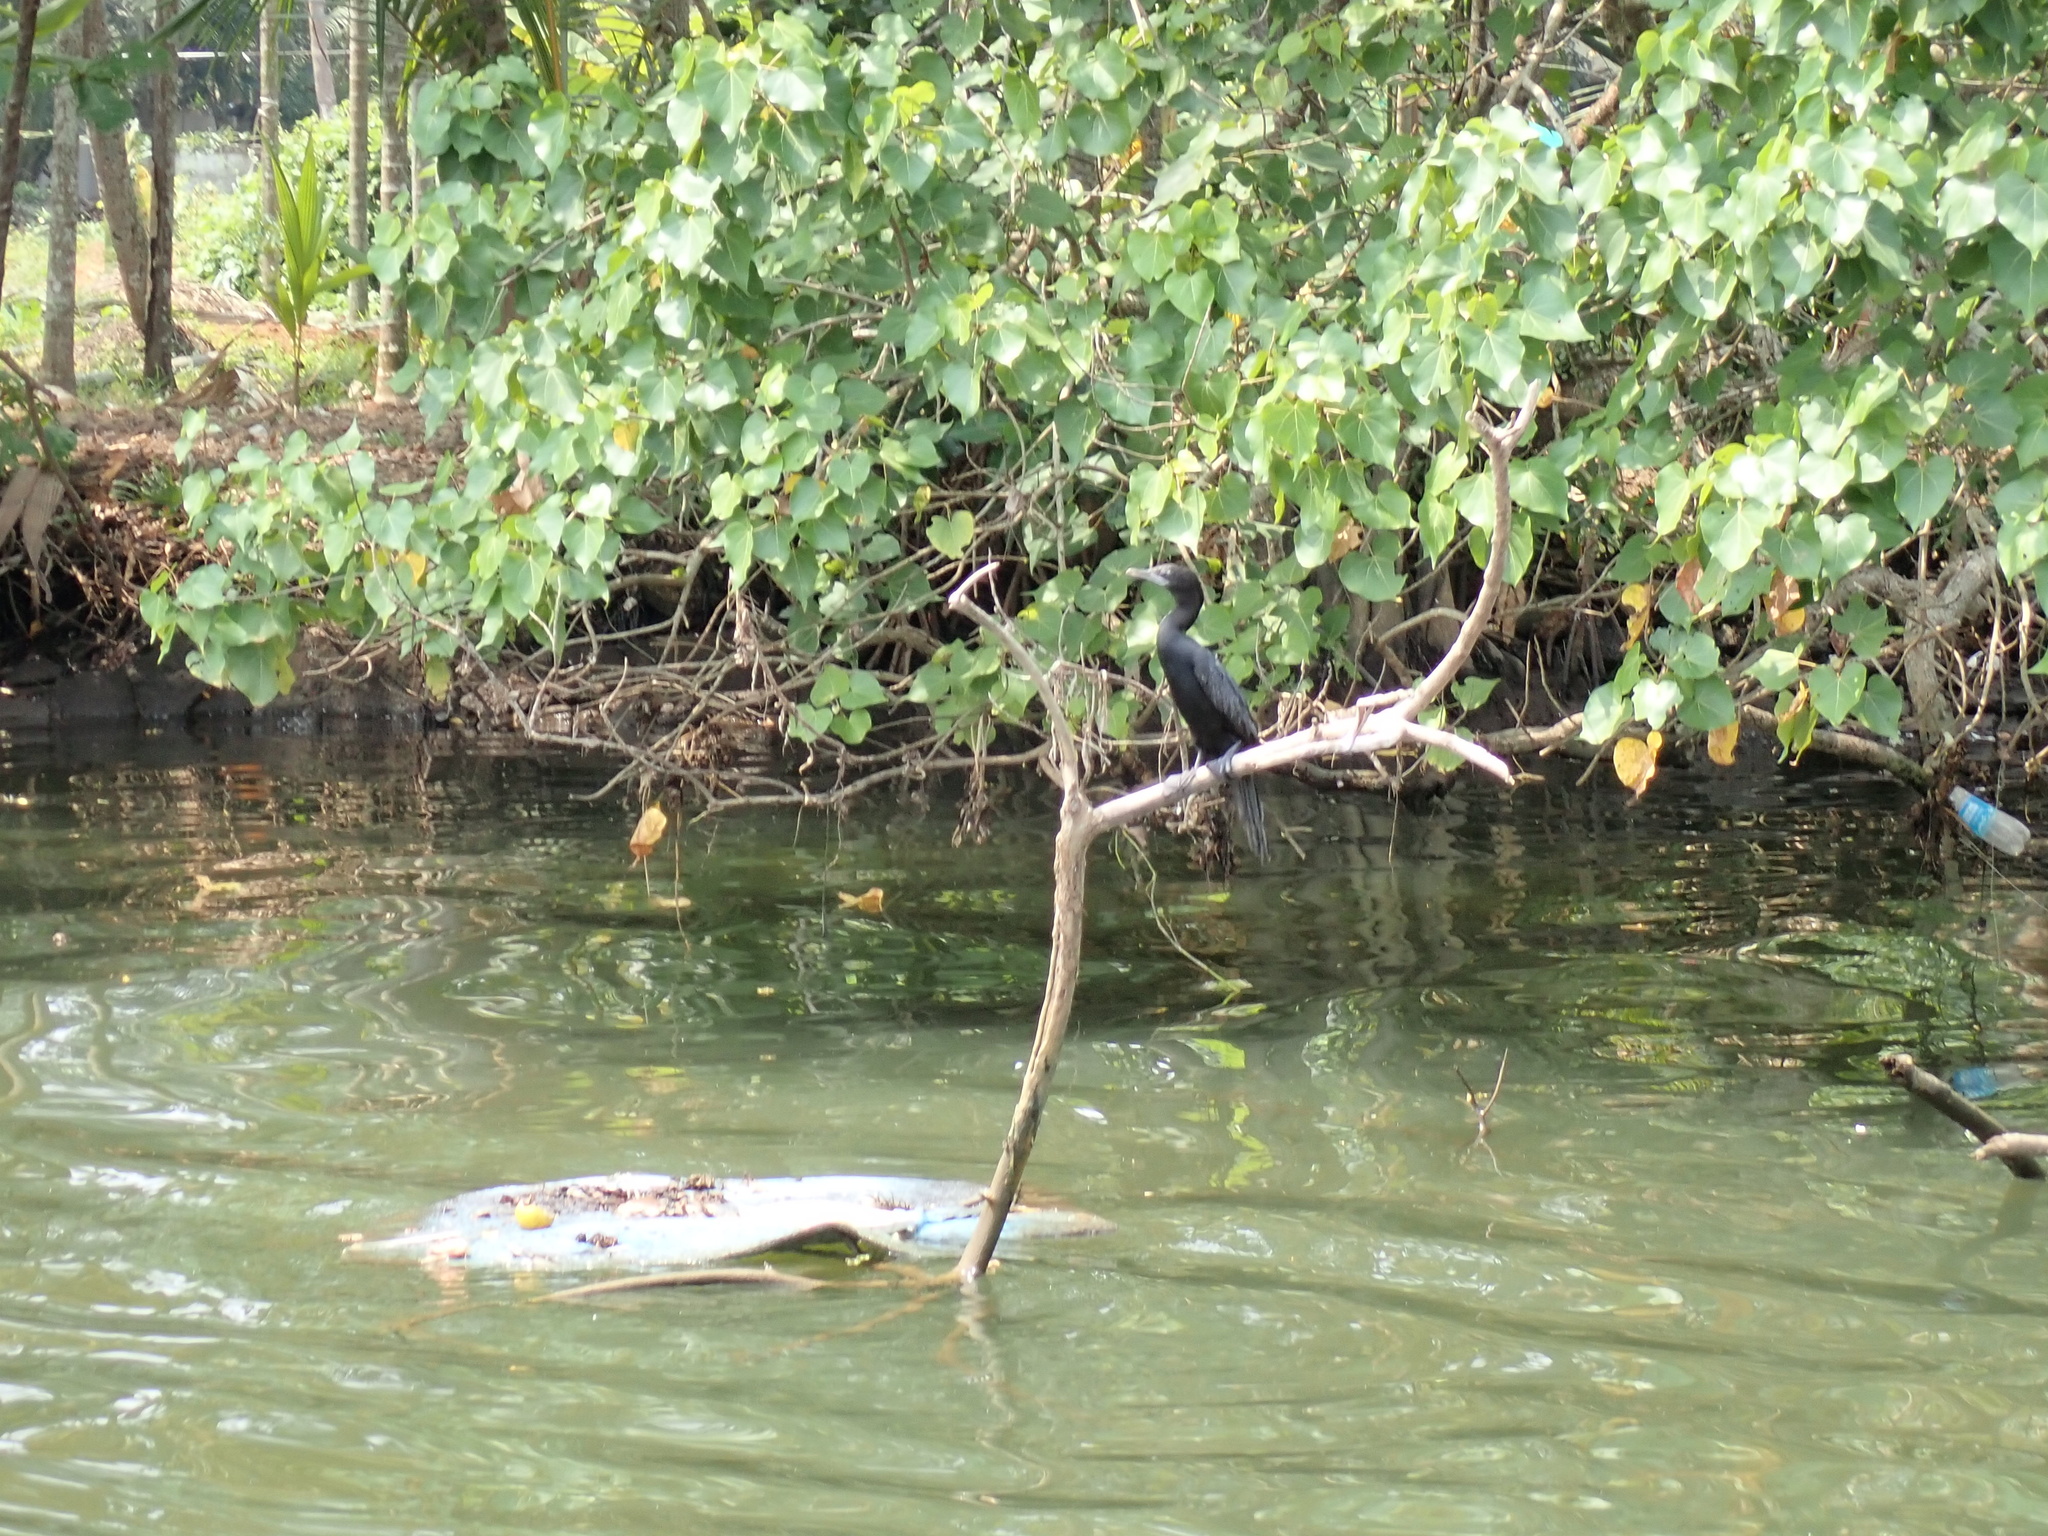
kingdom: Animalia
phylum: Chordata
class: Aves
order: Suliformes
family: Phalacrocoracidae
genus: Microcarbo
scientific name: Microcarbo niger
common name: Little cormorant
